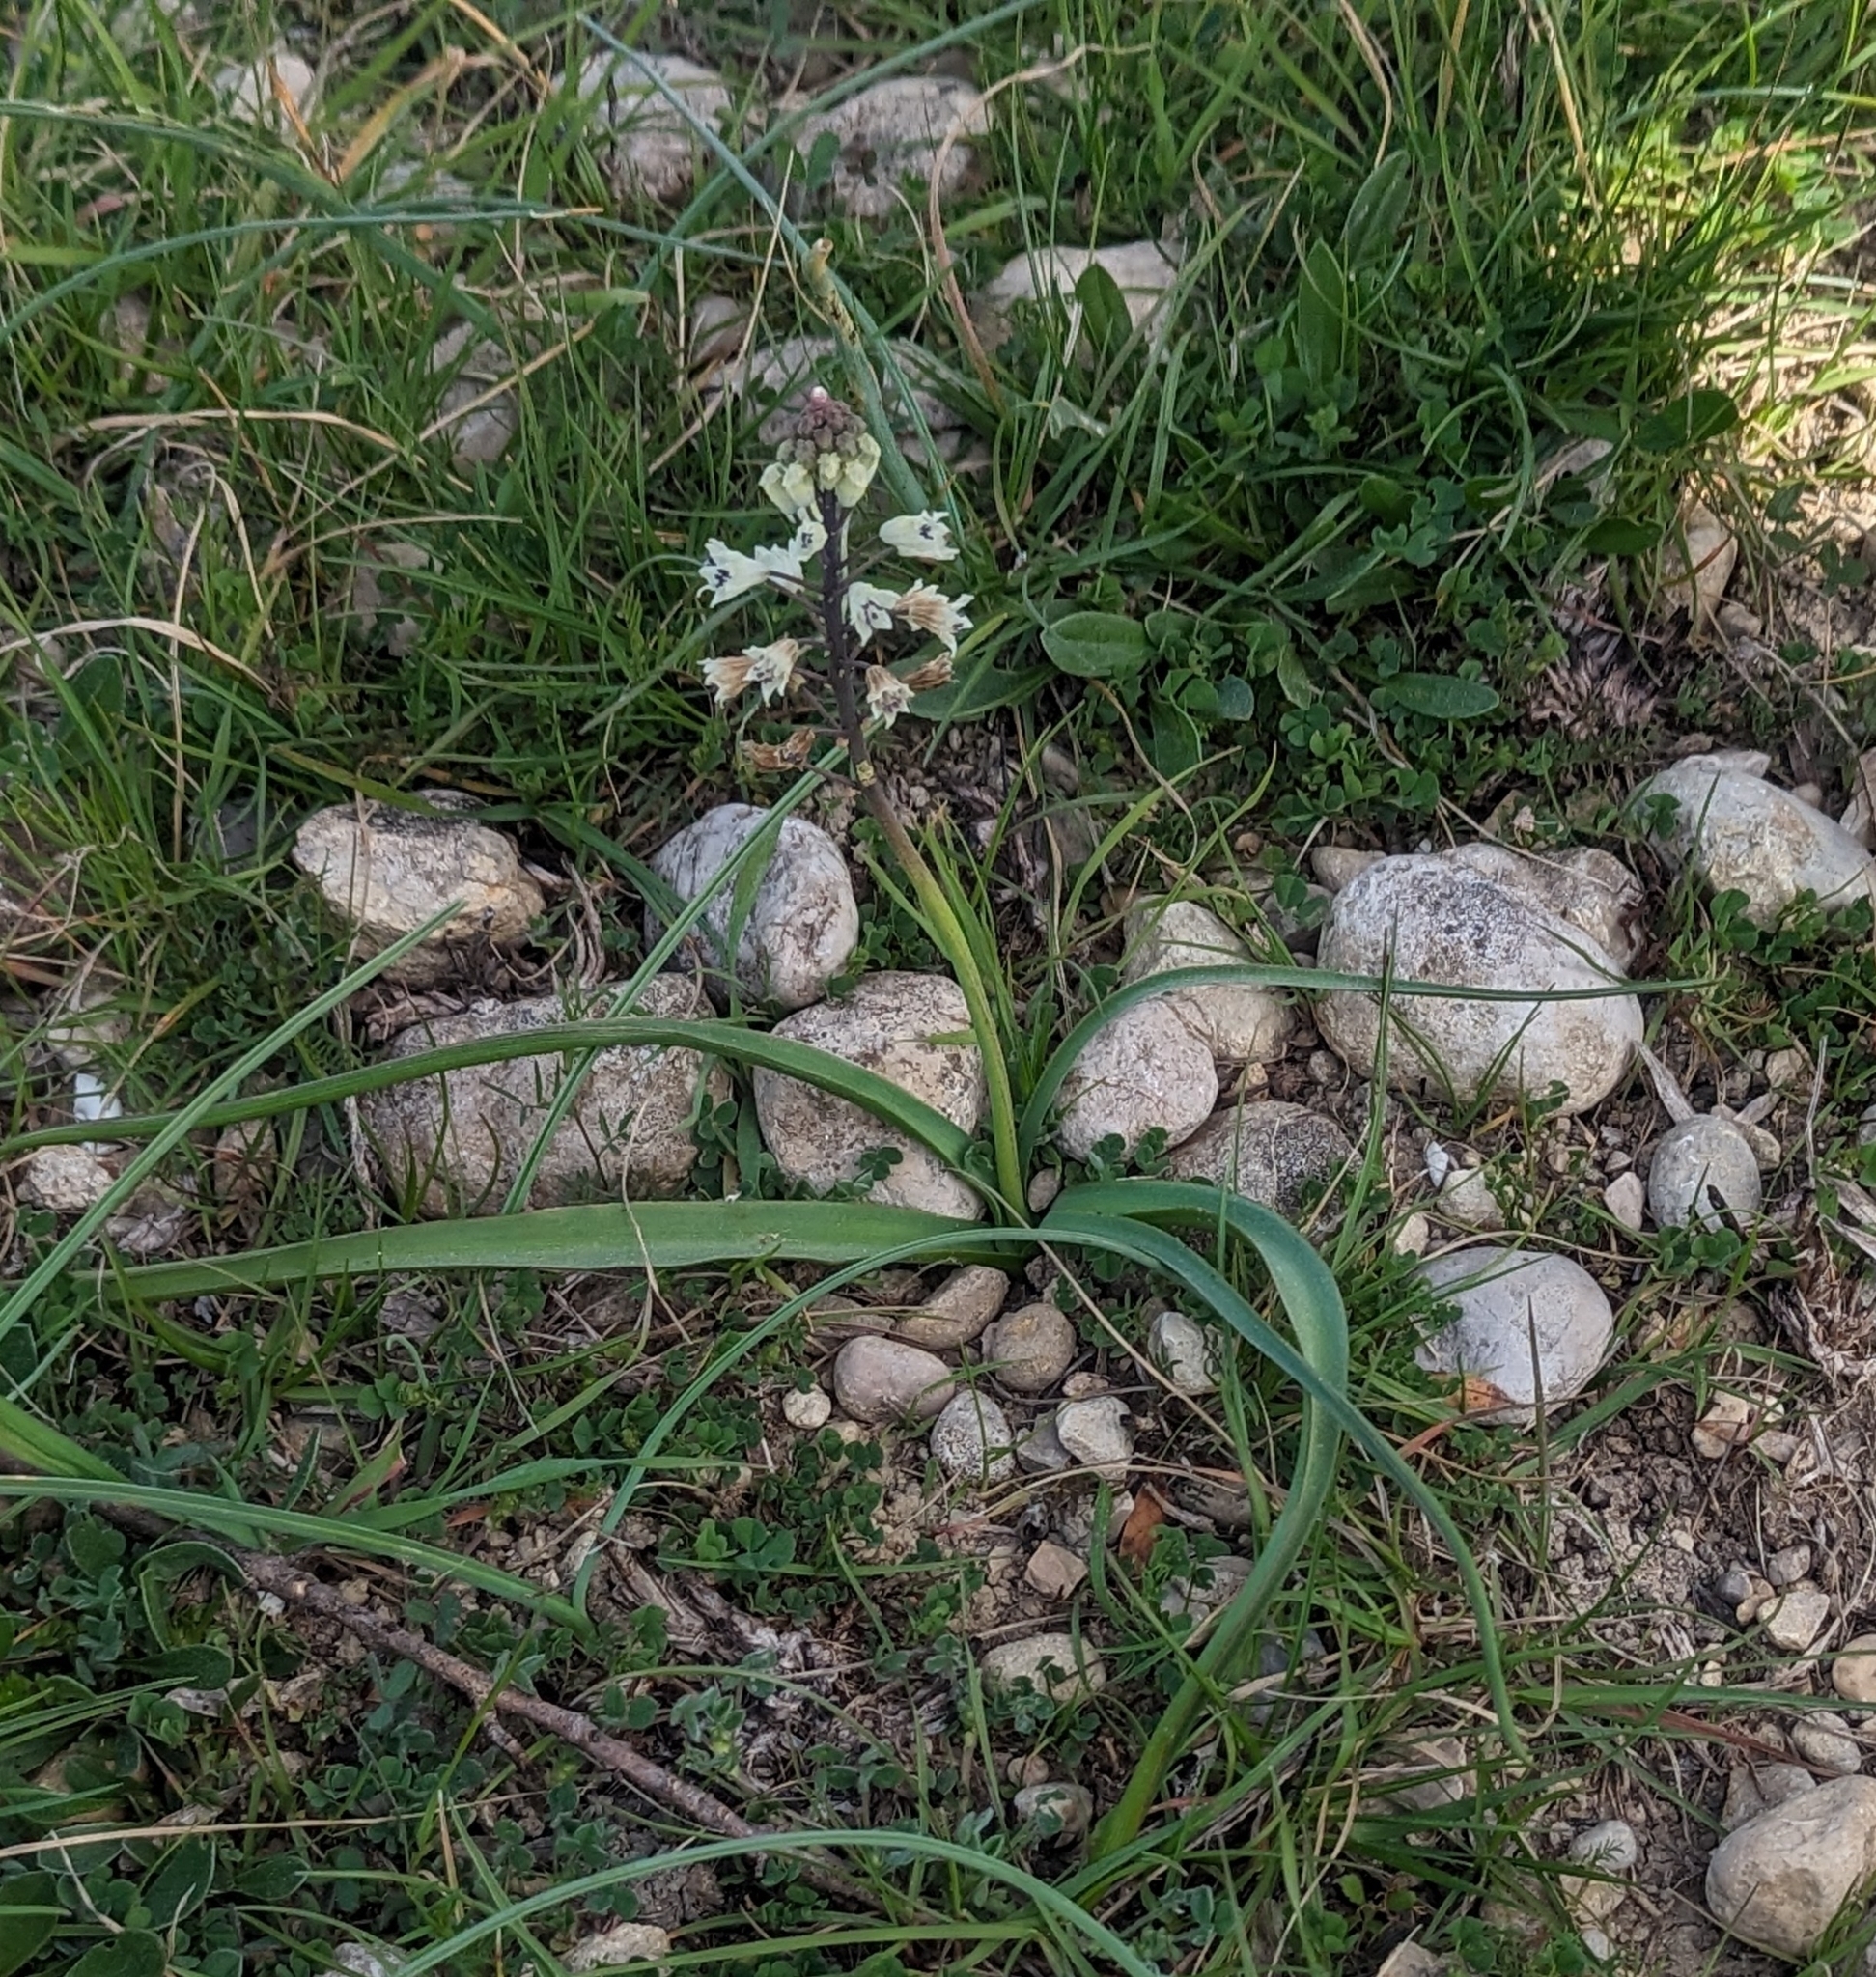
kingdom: Plantae
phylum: Tracheophyta
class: Liliopsida
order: Asparagales
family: Asparagaceae
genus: Bellevalia
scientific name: Bellevalia romana
